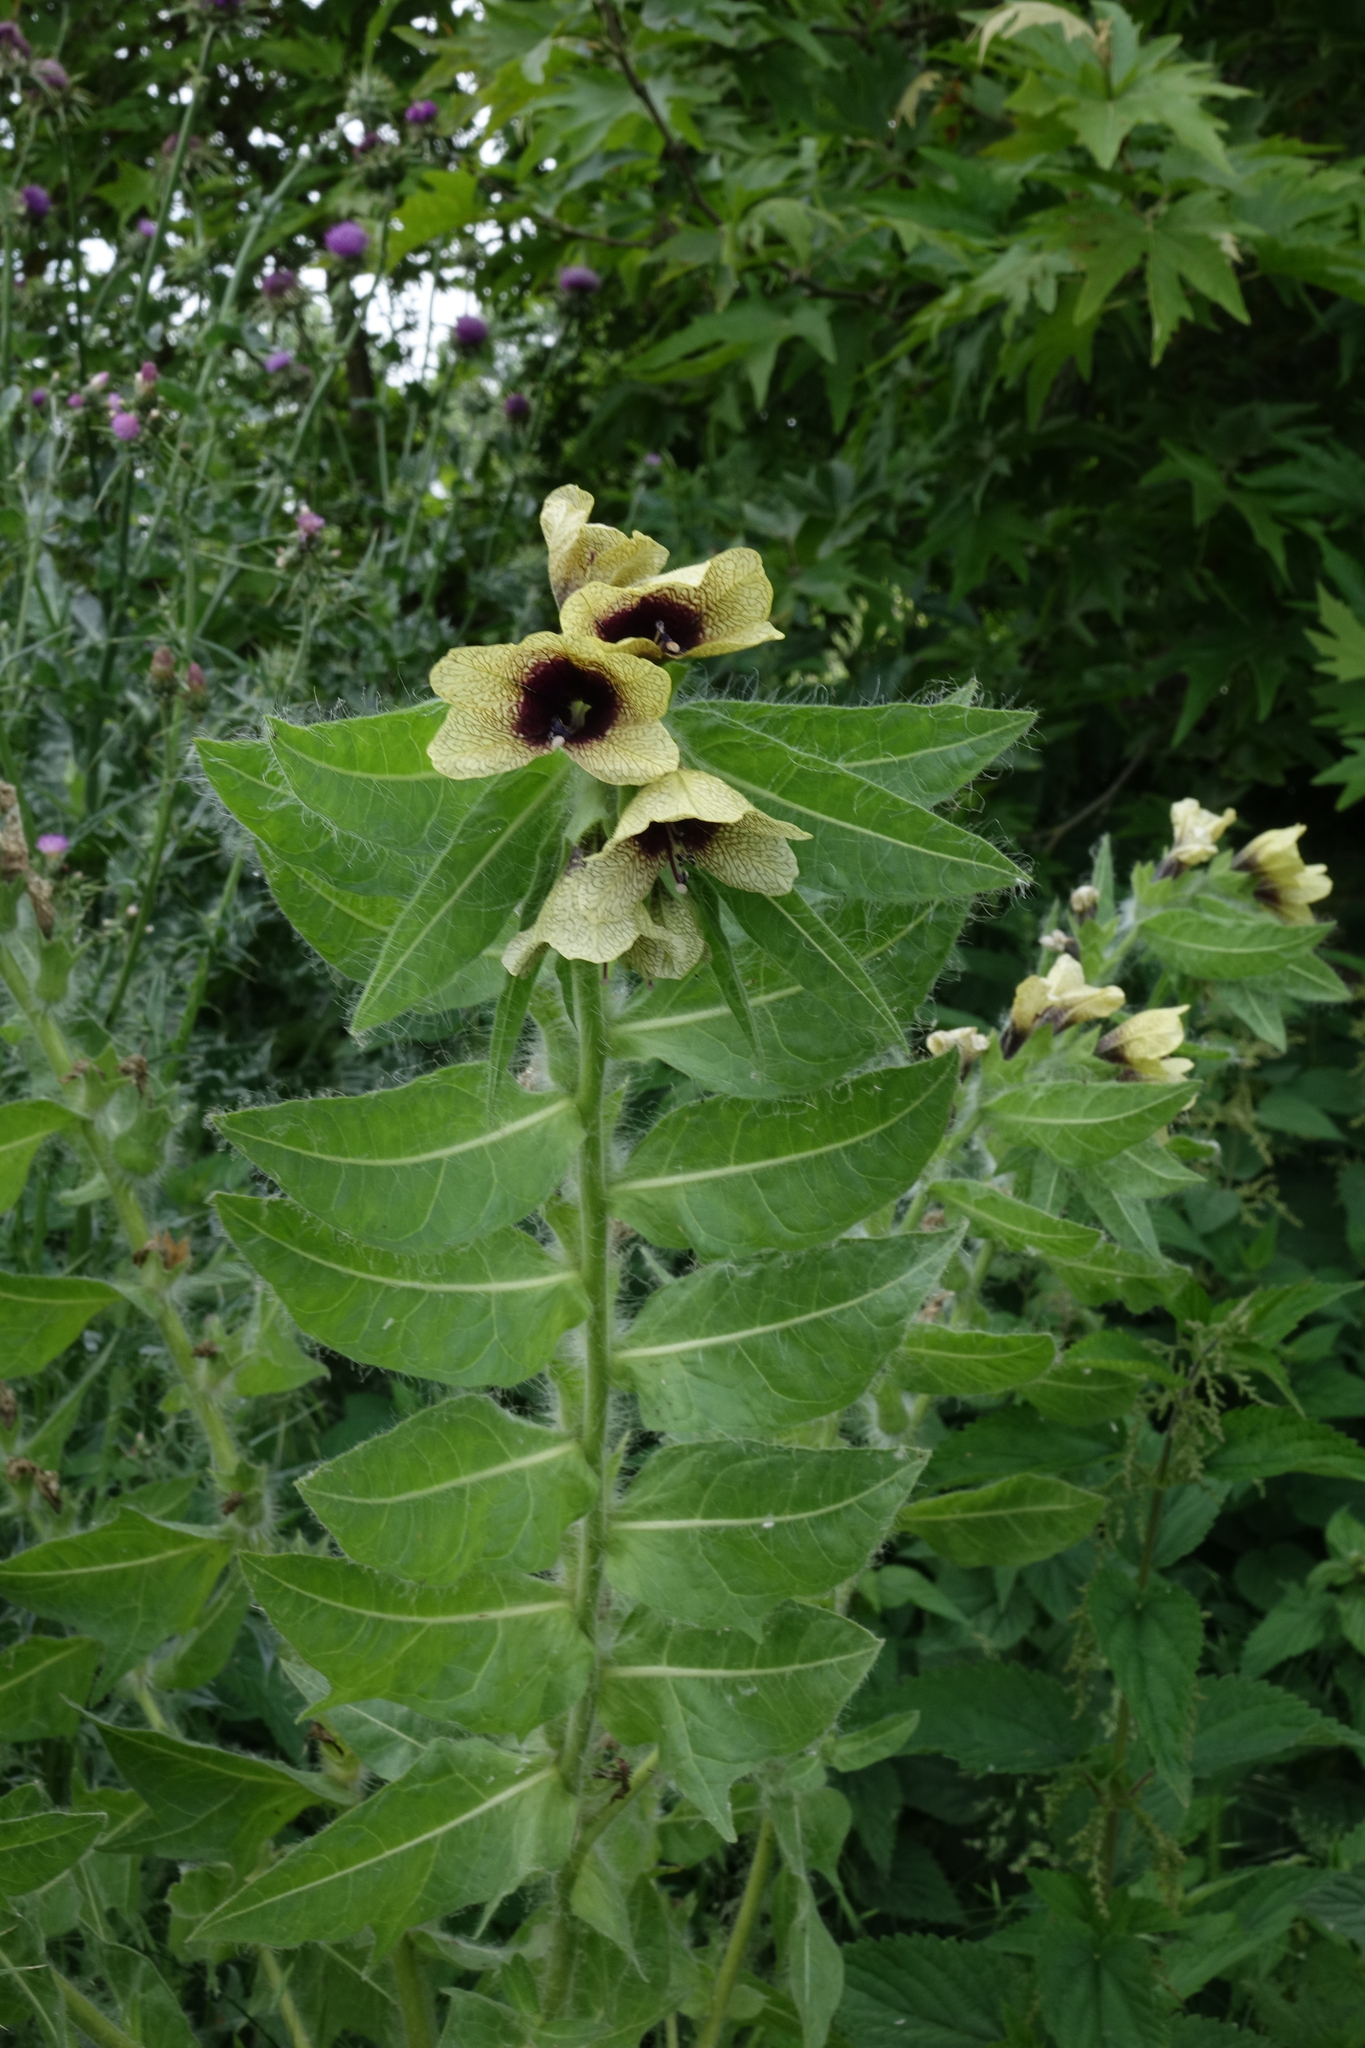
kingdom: Plantae
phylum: Tracheophyta
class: Magnoliopsida
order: Solanales
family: Solanaceae
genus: Hyoscyamus
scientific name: Hyoscyamus niger
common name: Henbane
